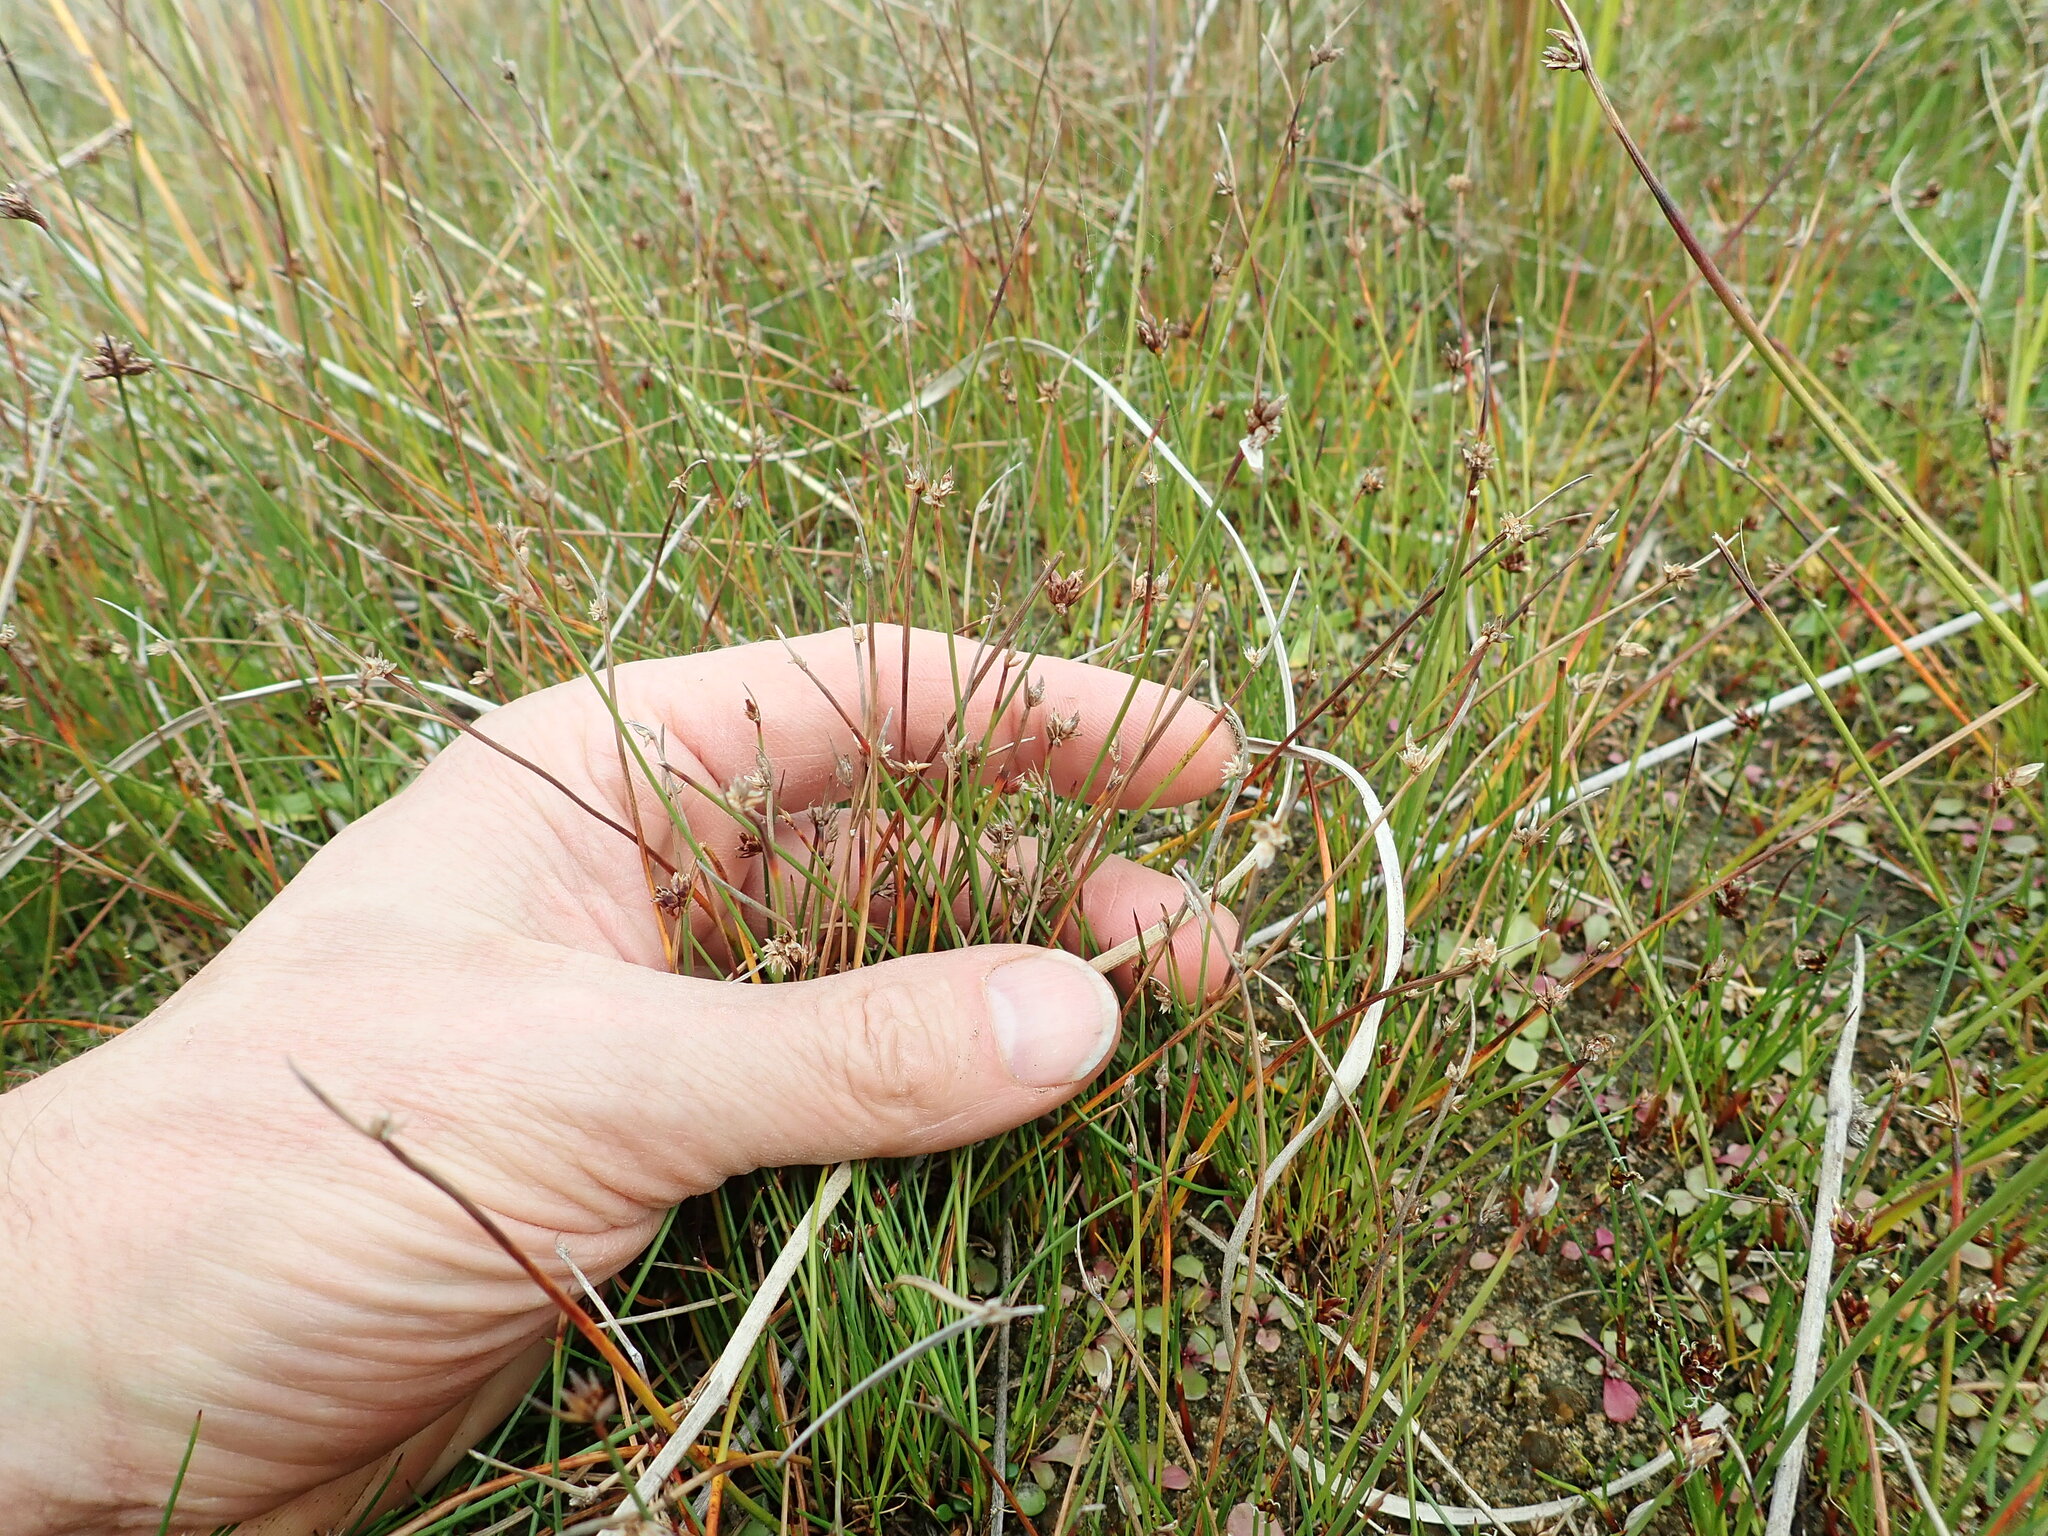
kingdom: Plantae
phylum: Tracheophyta
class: Liliopsida
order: Poales
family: Cyperaceae
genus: Schoenus
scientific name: Schoenus nitens
